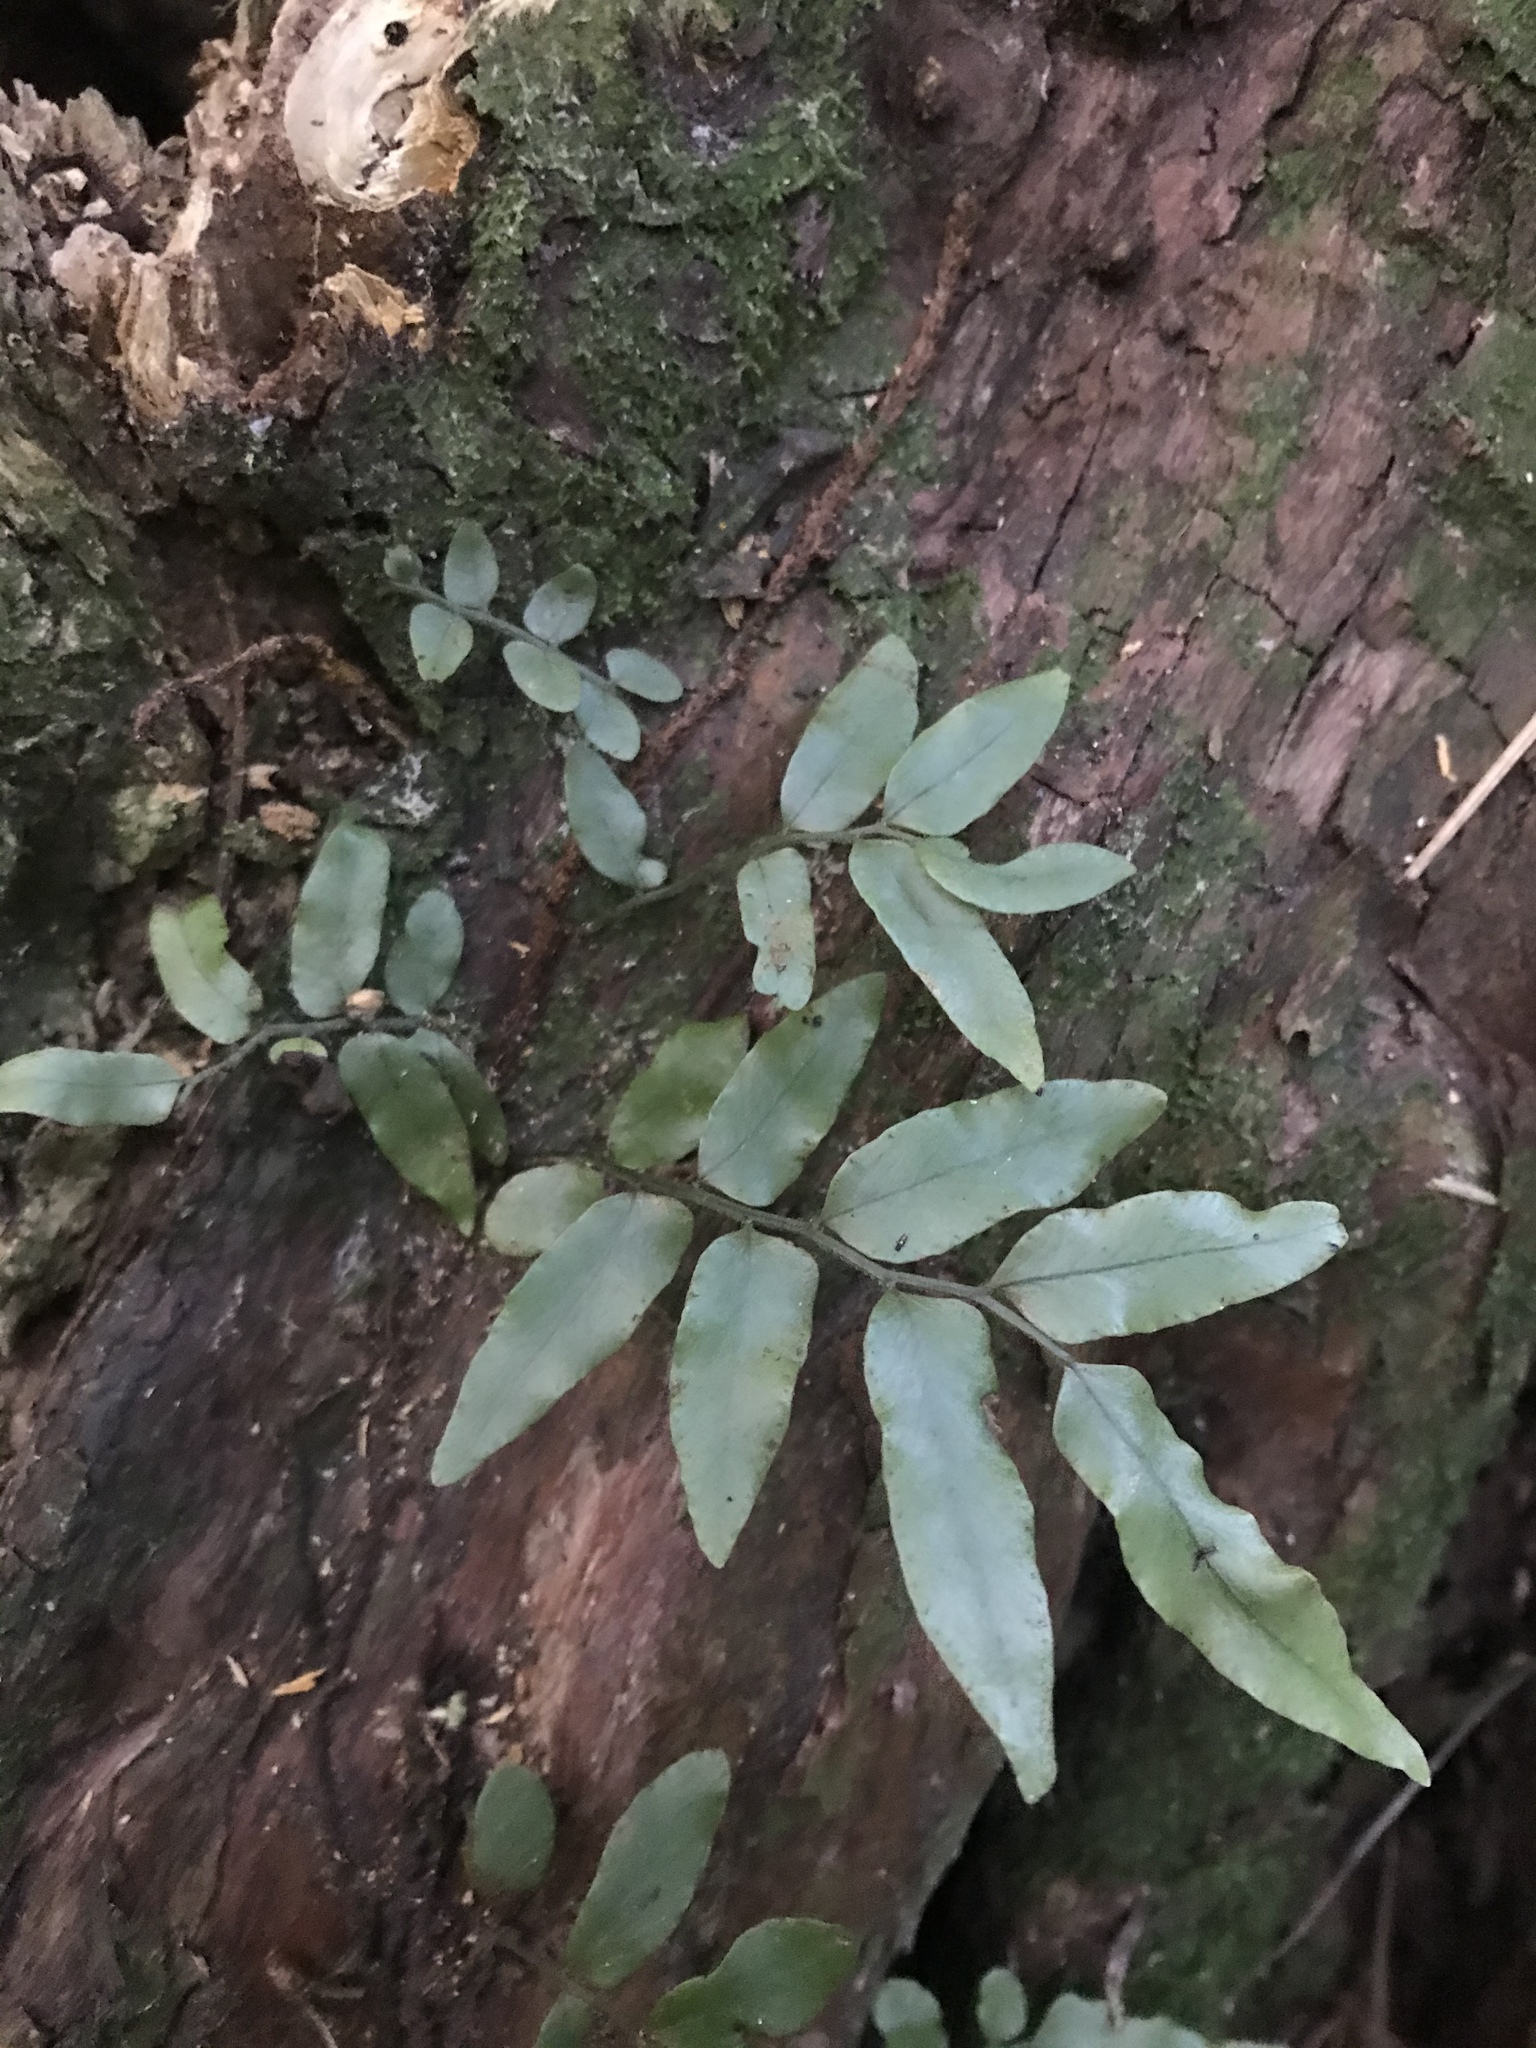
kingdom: Plantae
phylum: Tracheophyta
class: Polypodiopsida
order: Polypodiales
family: Tectariaceae
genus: Arthropteris
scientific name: Arthropteris tenella
